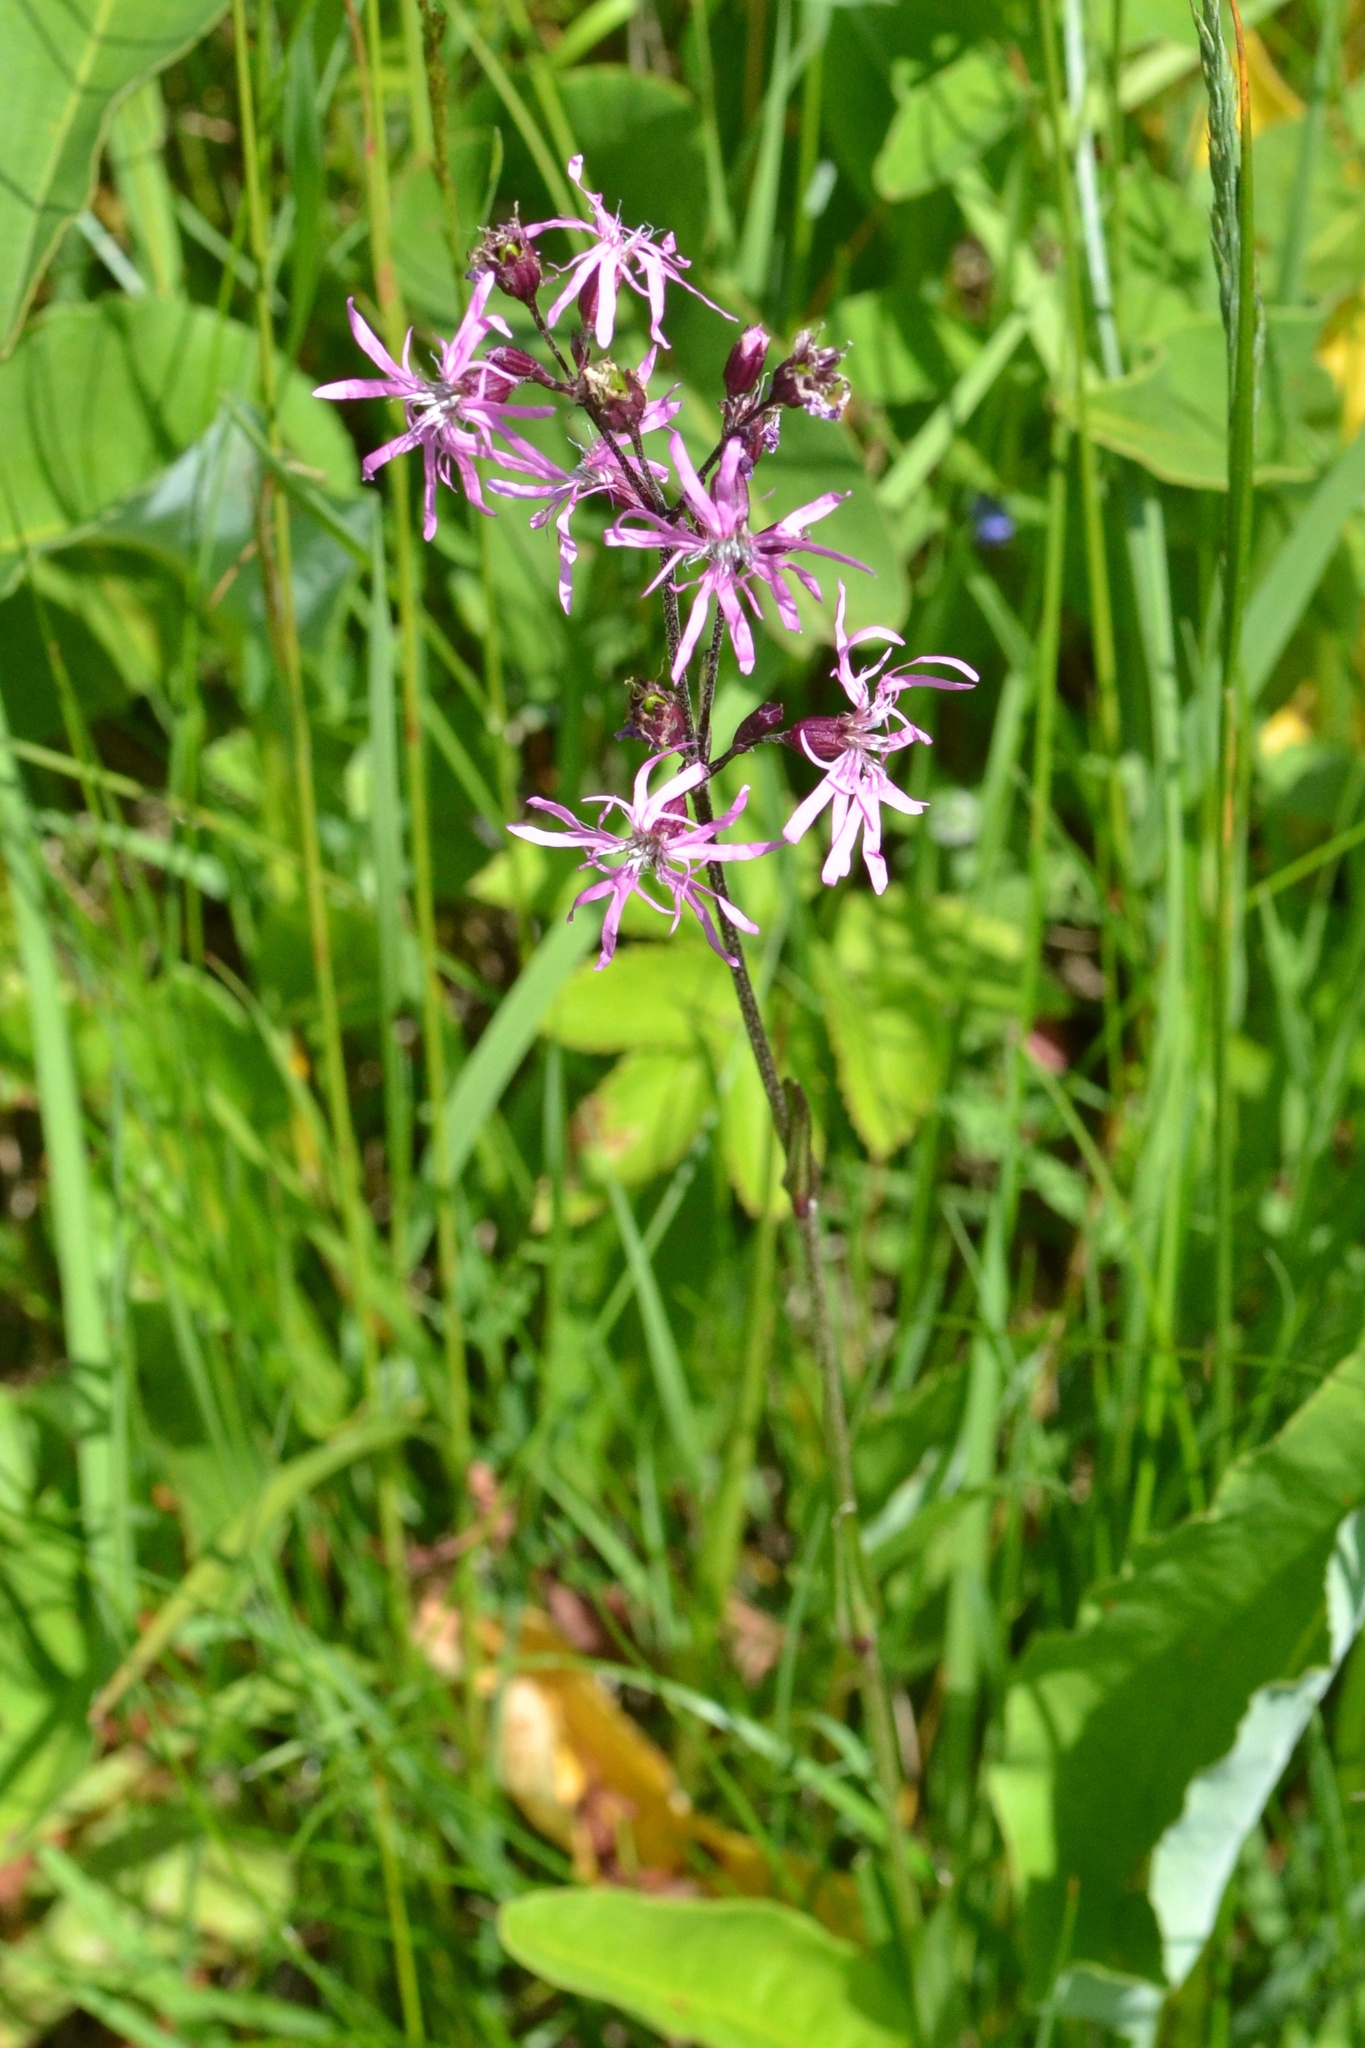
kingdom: Plantae
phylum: Tracheophyta
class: Magnoliopsida
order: Caryophyllales
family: Caryophyllaceae
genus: Silene
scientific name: Silene flos-cuculi
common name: Ragged-robin
